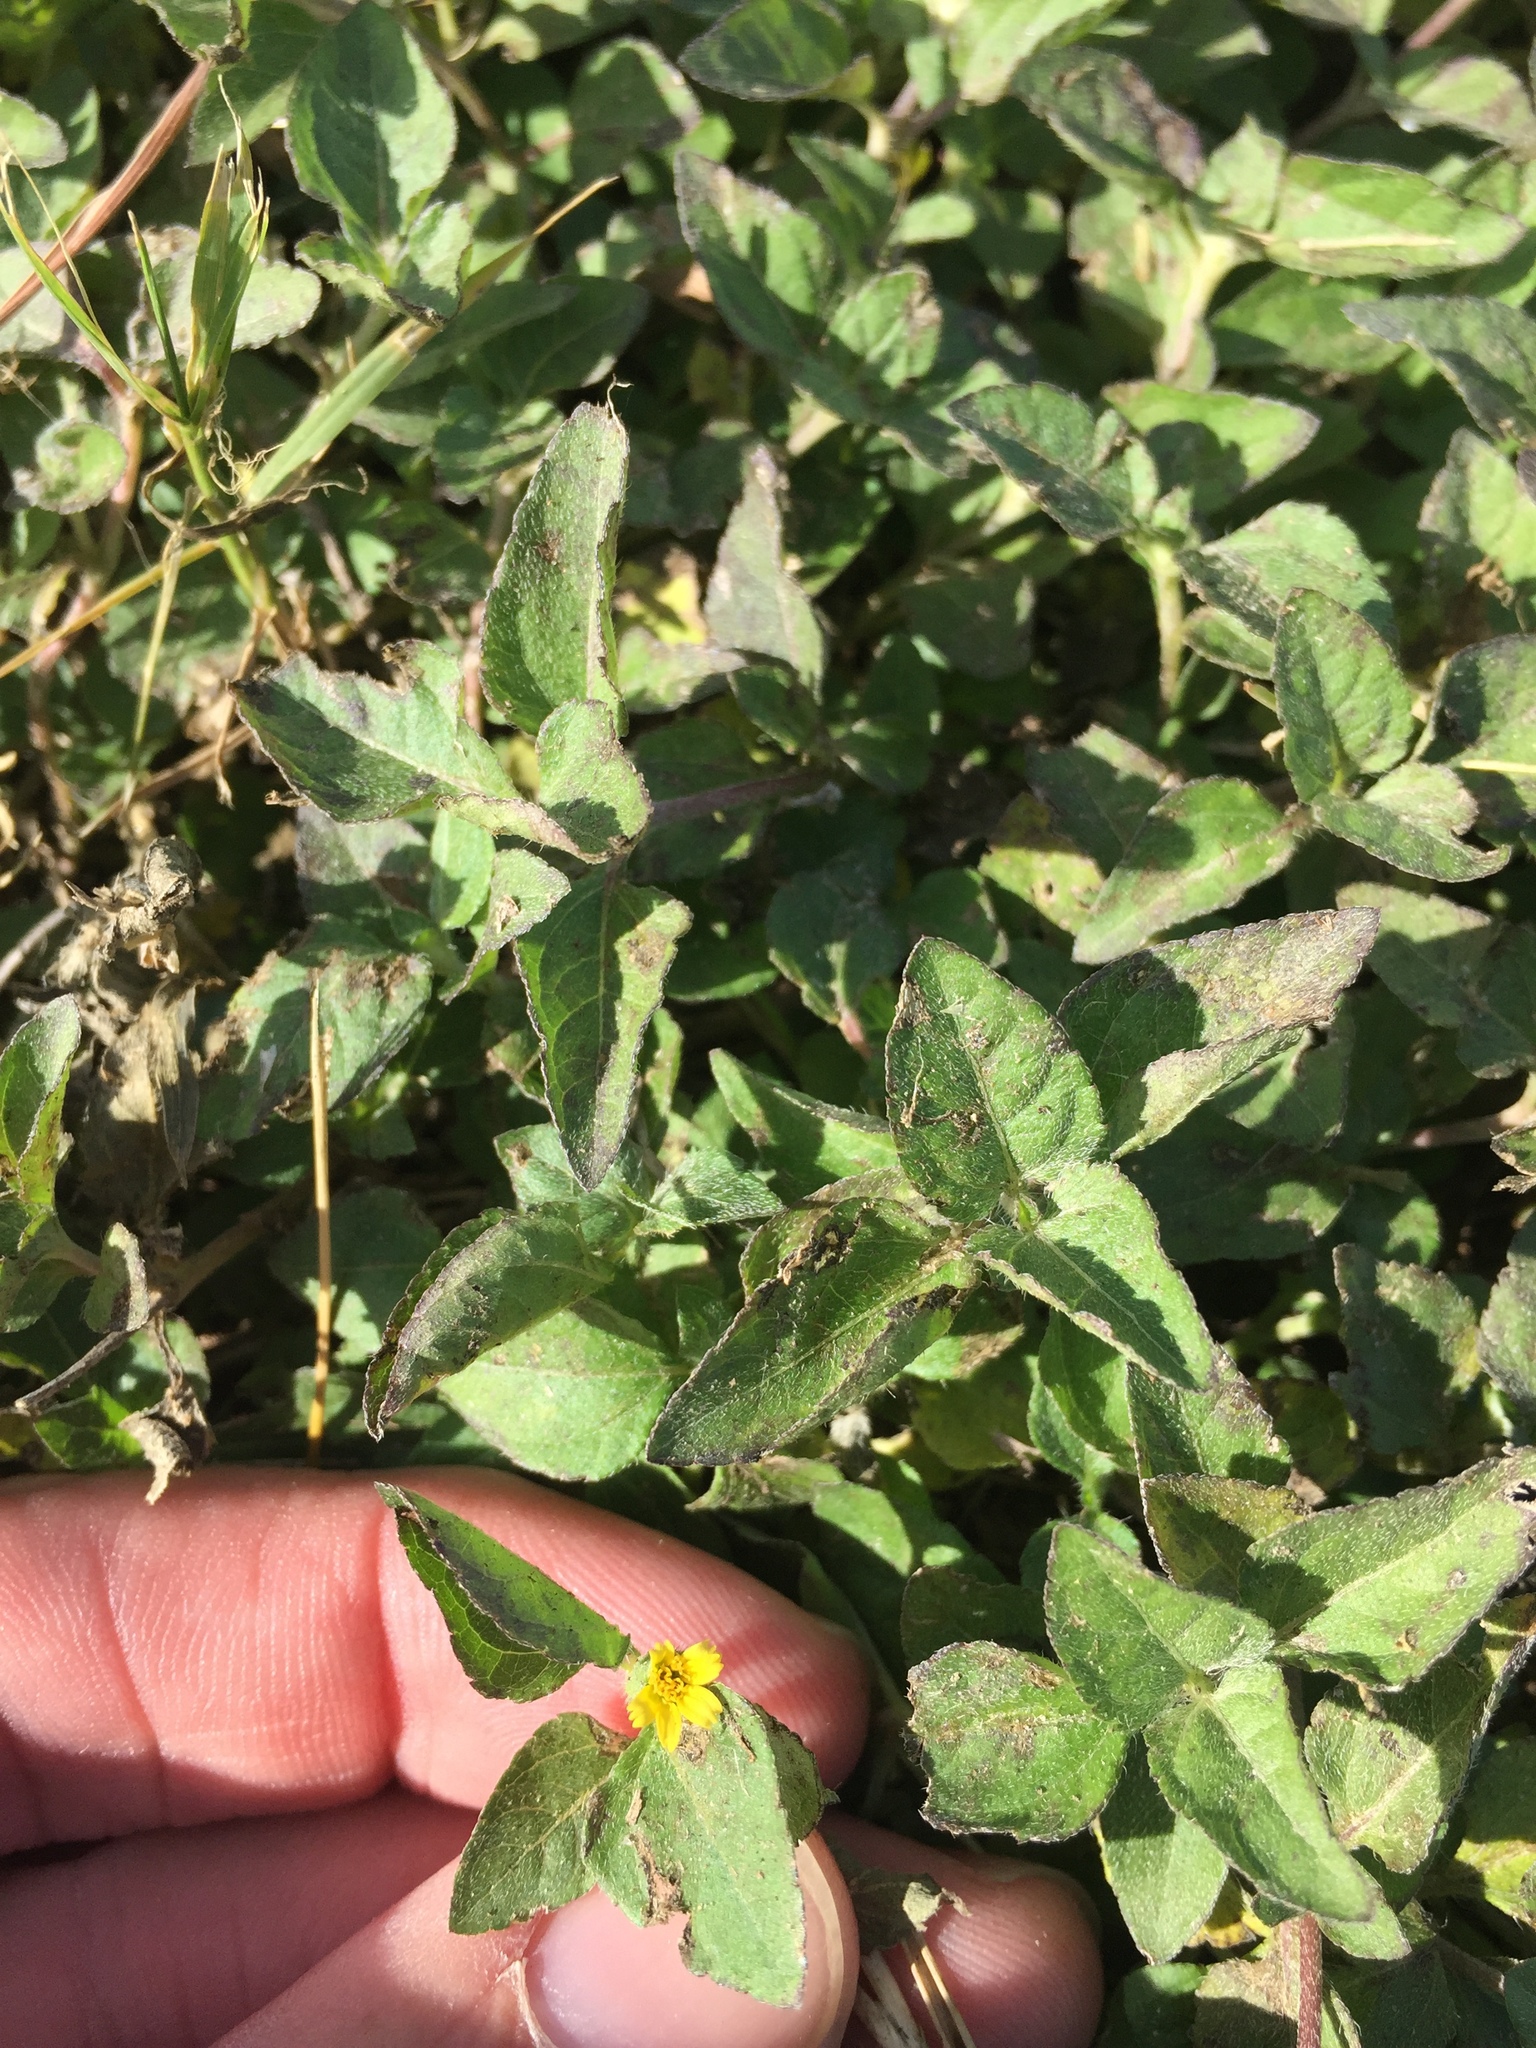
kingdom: Plantae
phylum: Tracheophyta
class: Magnoliopsida
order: Asterales
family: Asteraceae
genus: Calyptocarpus
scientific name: Calyptocarpus vialis
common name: Straggler daisy
